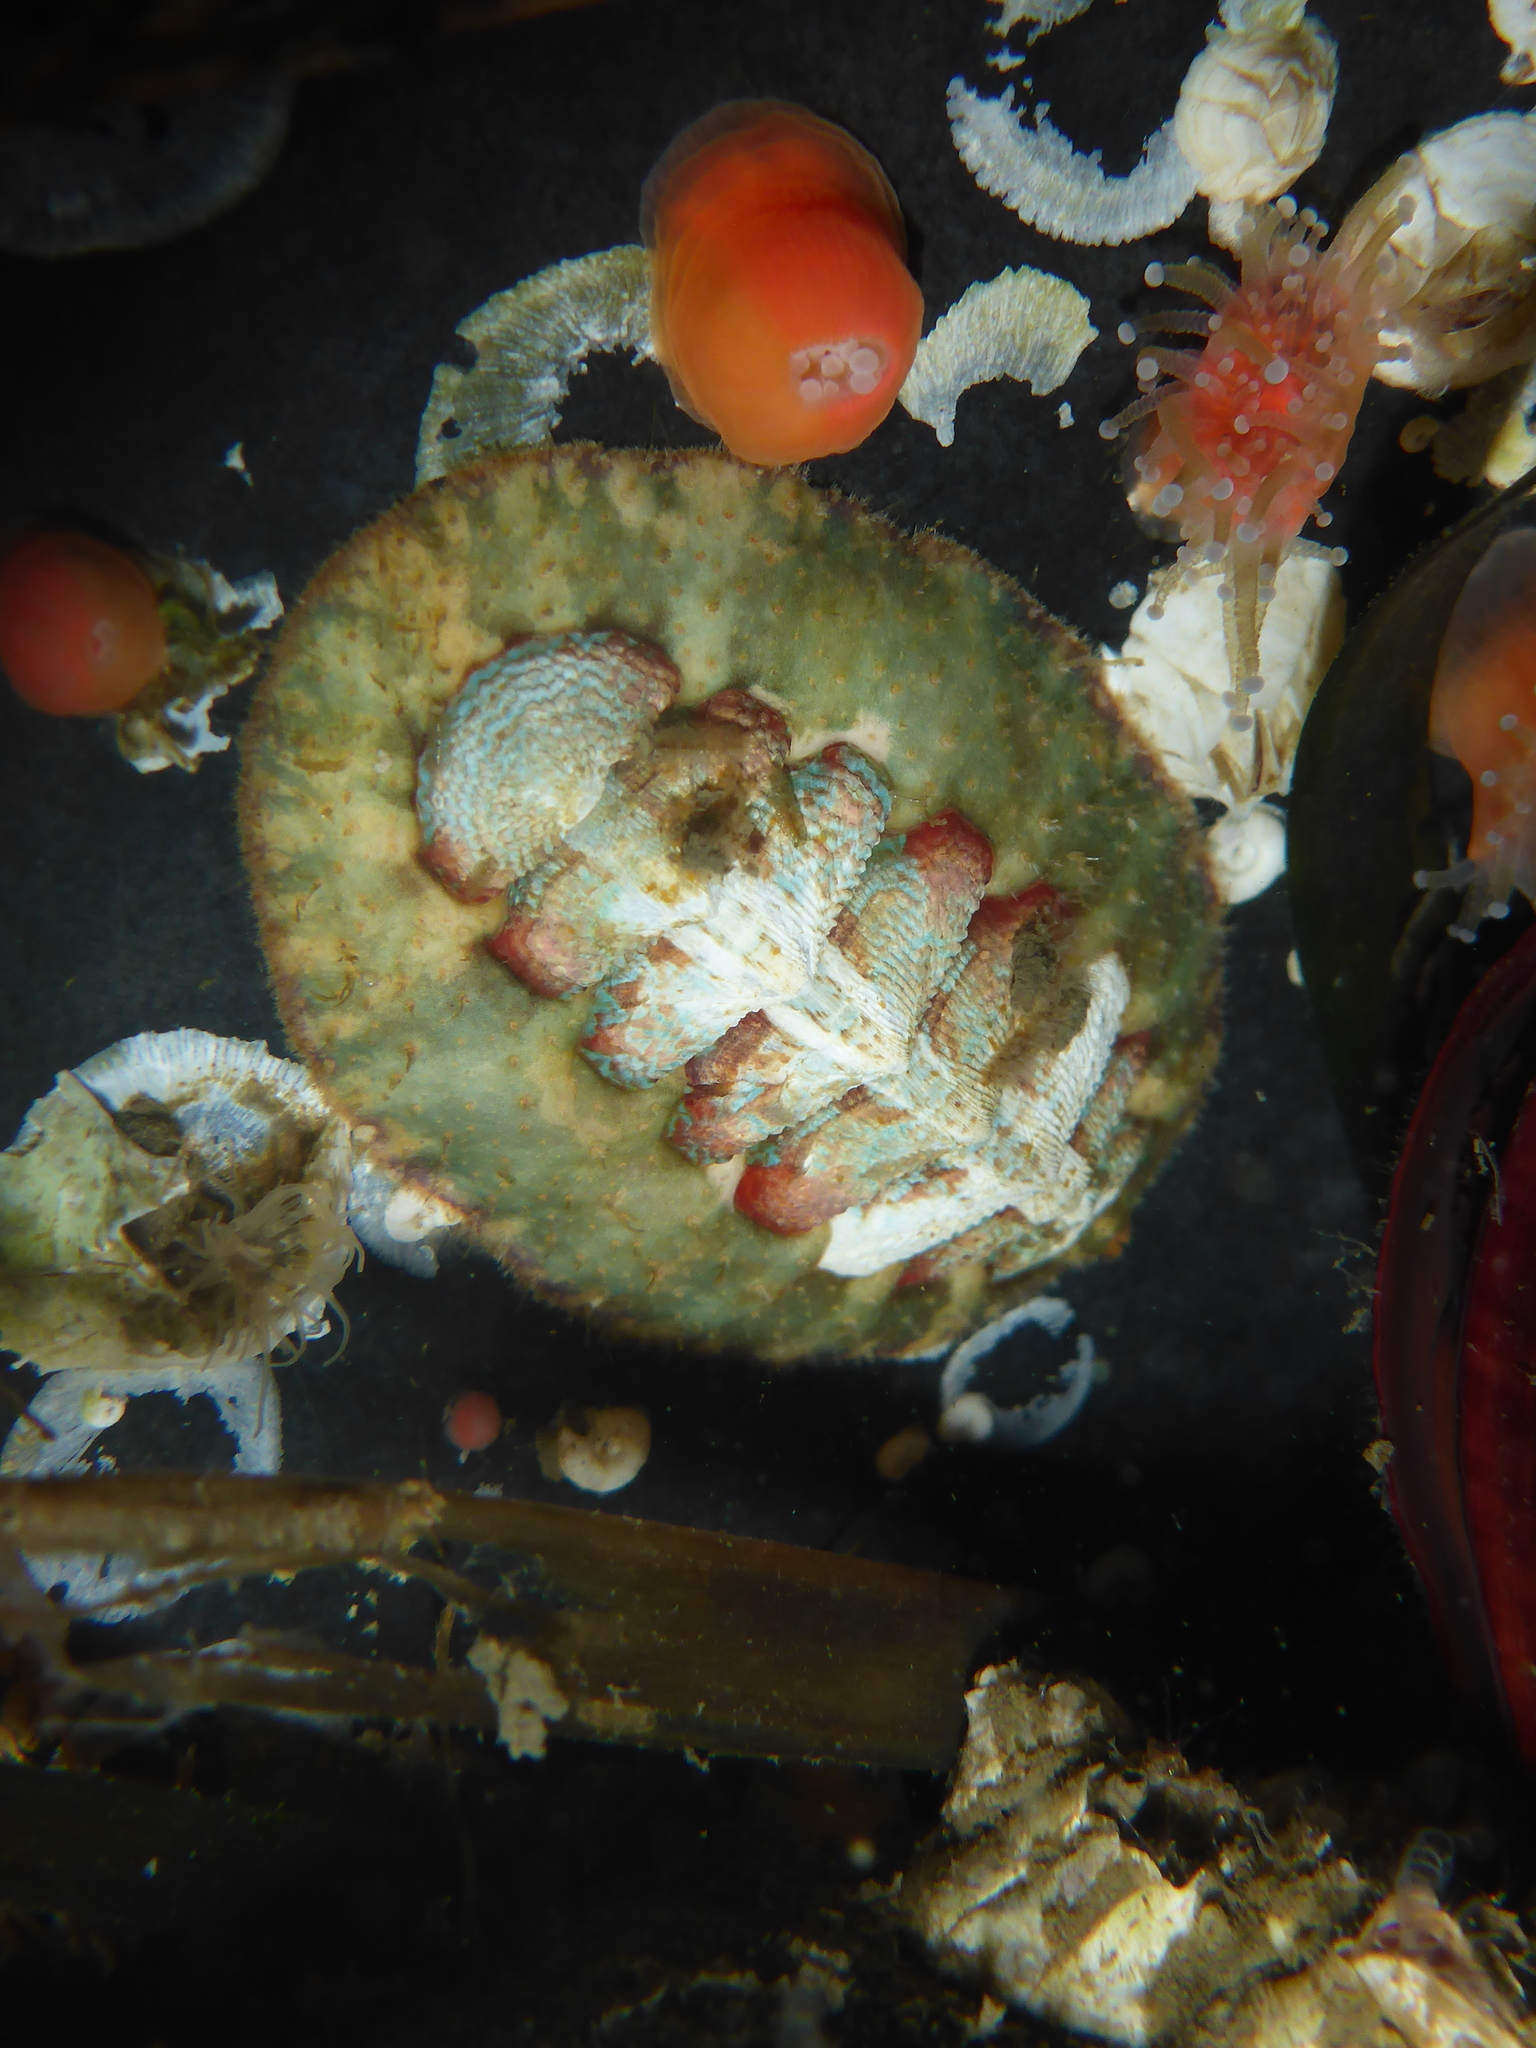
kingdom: Animalia
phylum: Mollusca
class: Polyplacophora
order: Chitonida
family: Mopaliidae
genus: Mopalia
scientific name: Mopalia spectabilis
